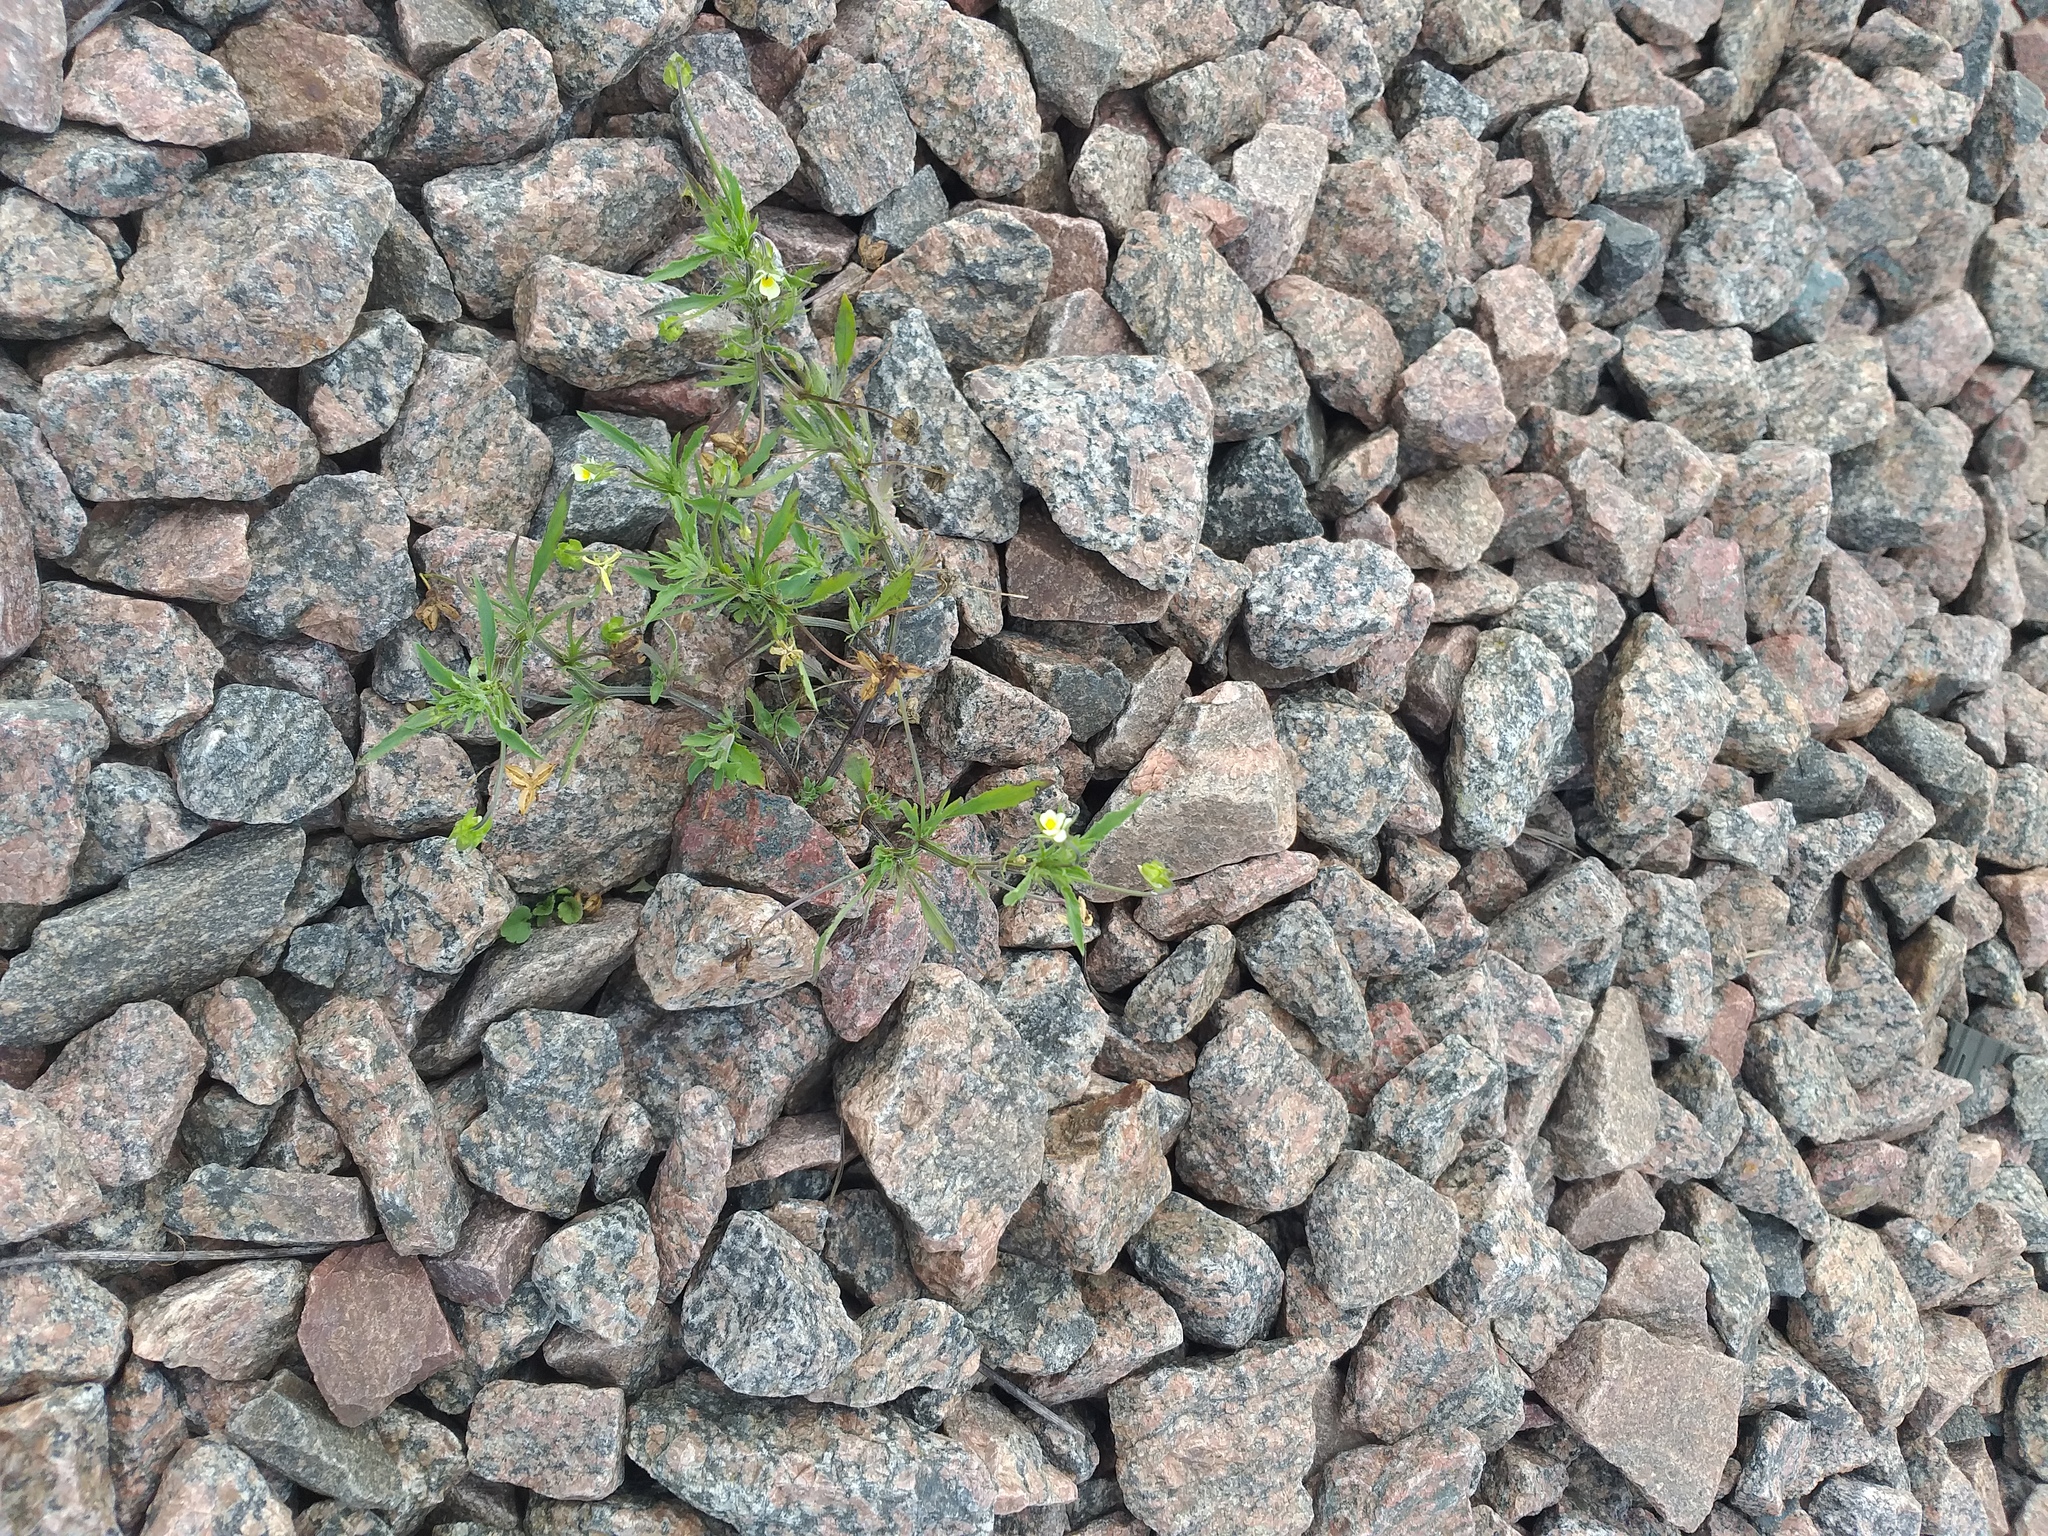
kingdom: Plantae
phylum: Tracheophyta
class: Magnoliopsida
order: Malpighiales
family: Violaceae
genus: Viola
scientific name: Viola arvensis
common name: Field pansy
